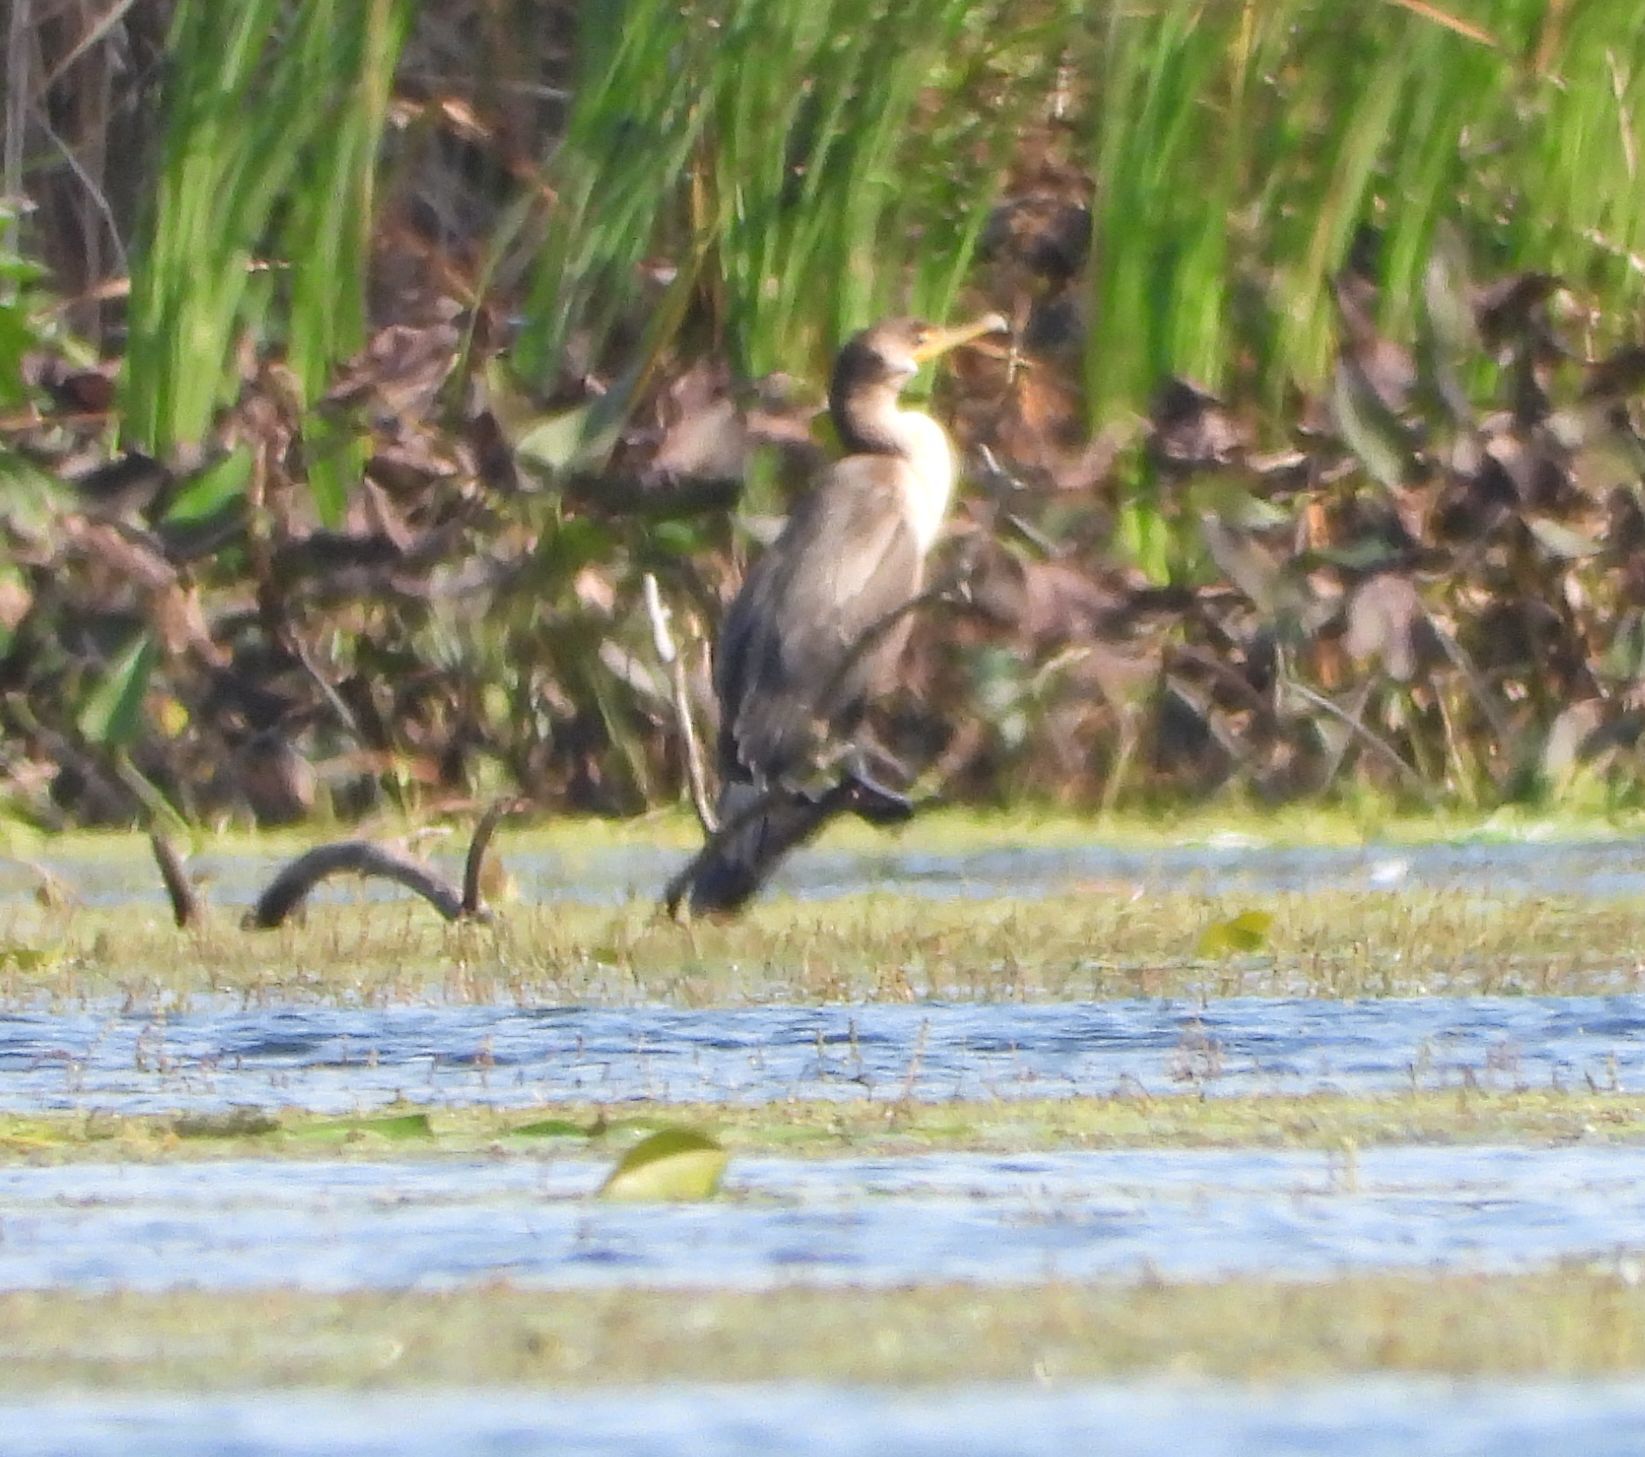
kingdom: Animalia
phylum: Chordata
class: Aves
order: Suliformes
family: Phalacrocoracidae
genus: Phalacrocorax
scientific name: Phalacrocorax auritus
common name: Double-crested cormorant
